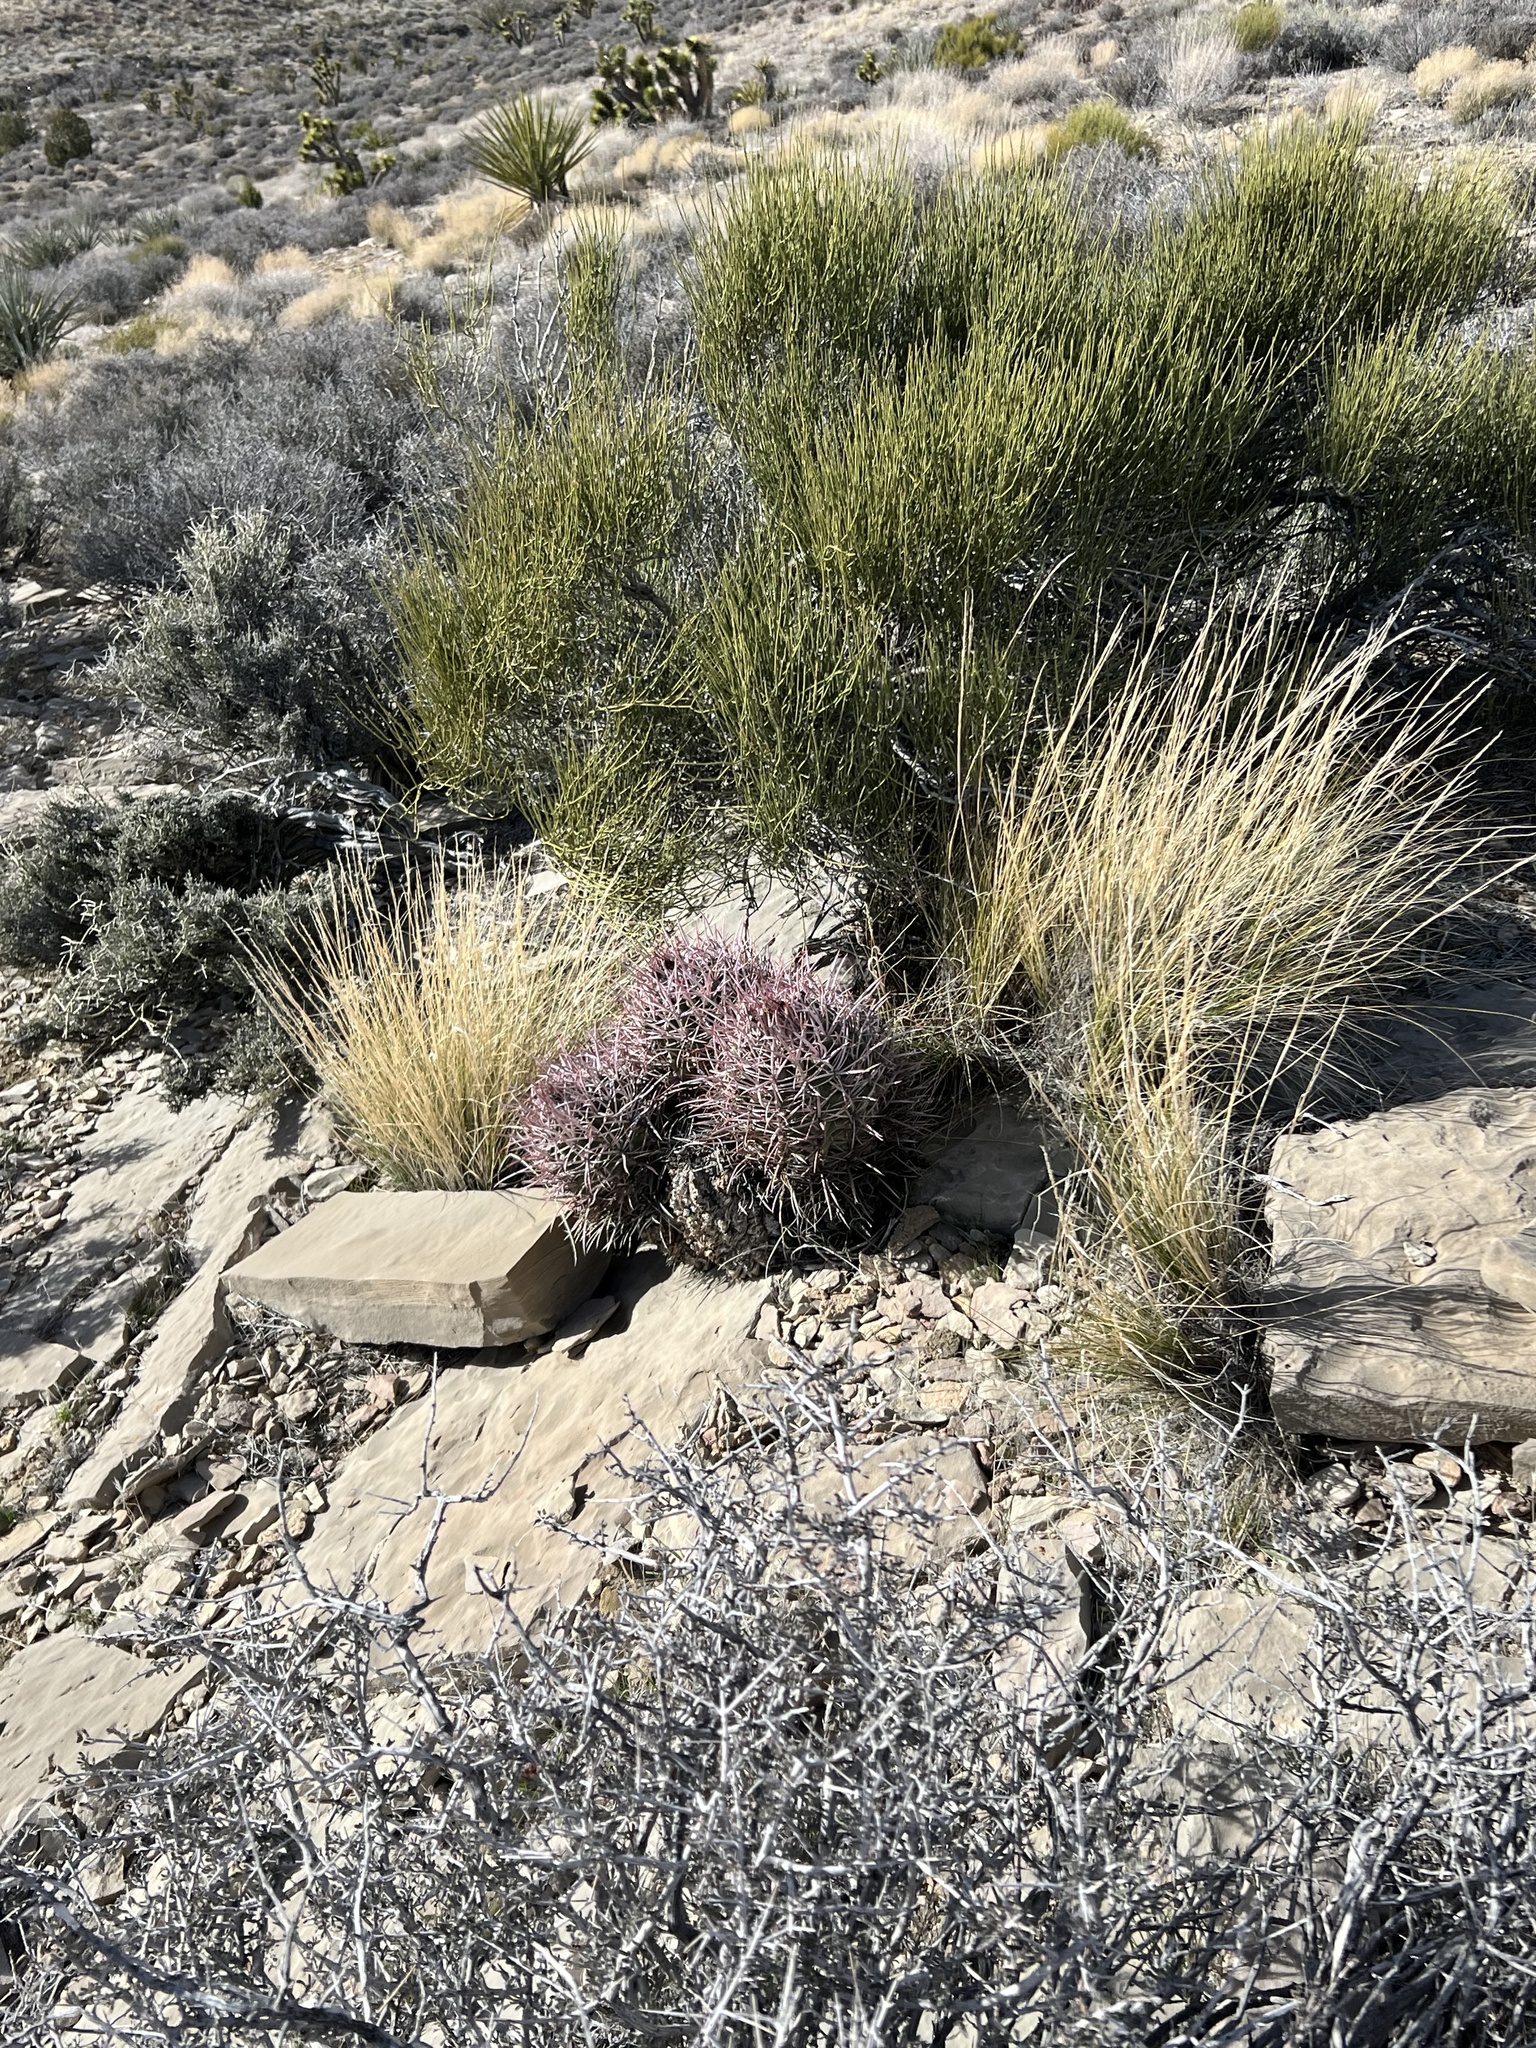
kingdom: Plantae
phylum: Tracheophyta
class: Magnoliopsida
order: Caryophyllales
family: Cactaceae
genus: Echinocactus
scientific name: Echinocactus polycephalus
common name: Cottontop cactus
